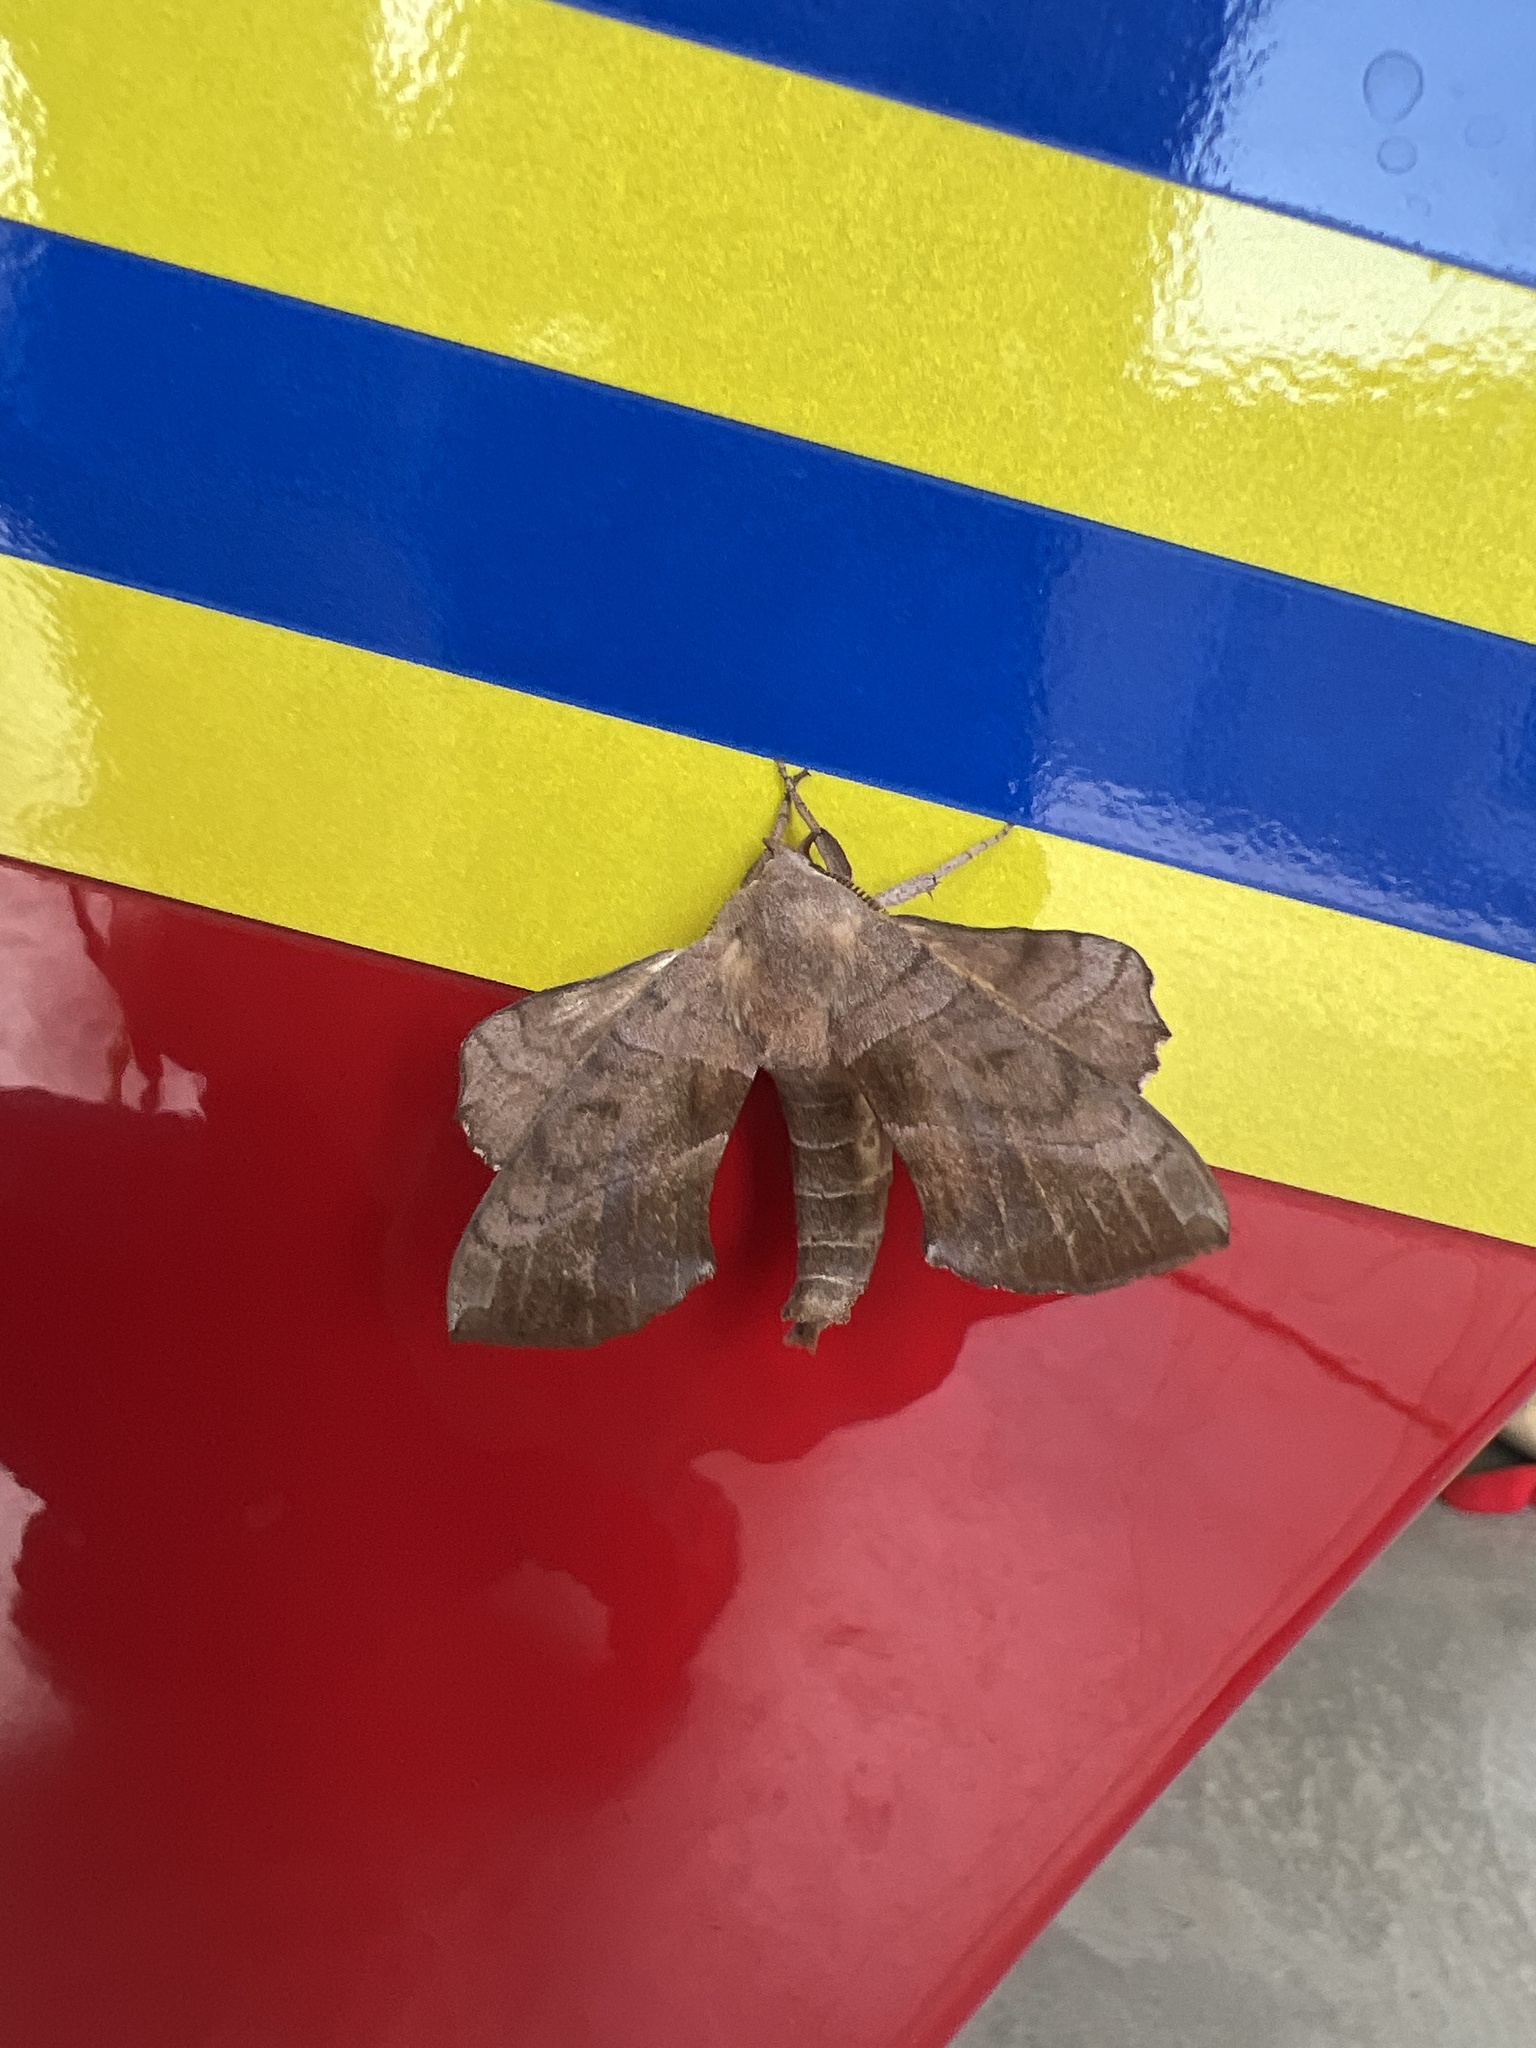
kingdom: Animalia
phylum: Arthropoda
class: Insecta
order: Lepidoptera
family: Sphingidae
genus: Amorpha
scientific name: Amorpha juglandis
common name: Walnut sphinx
